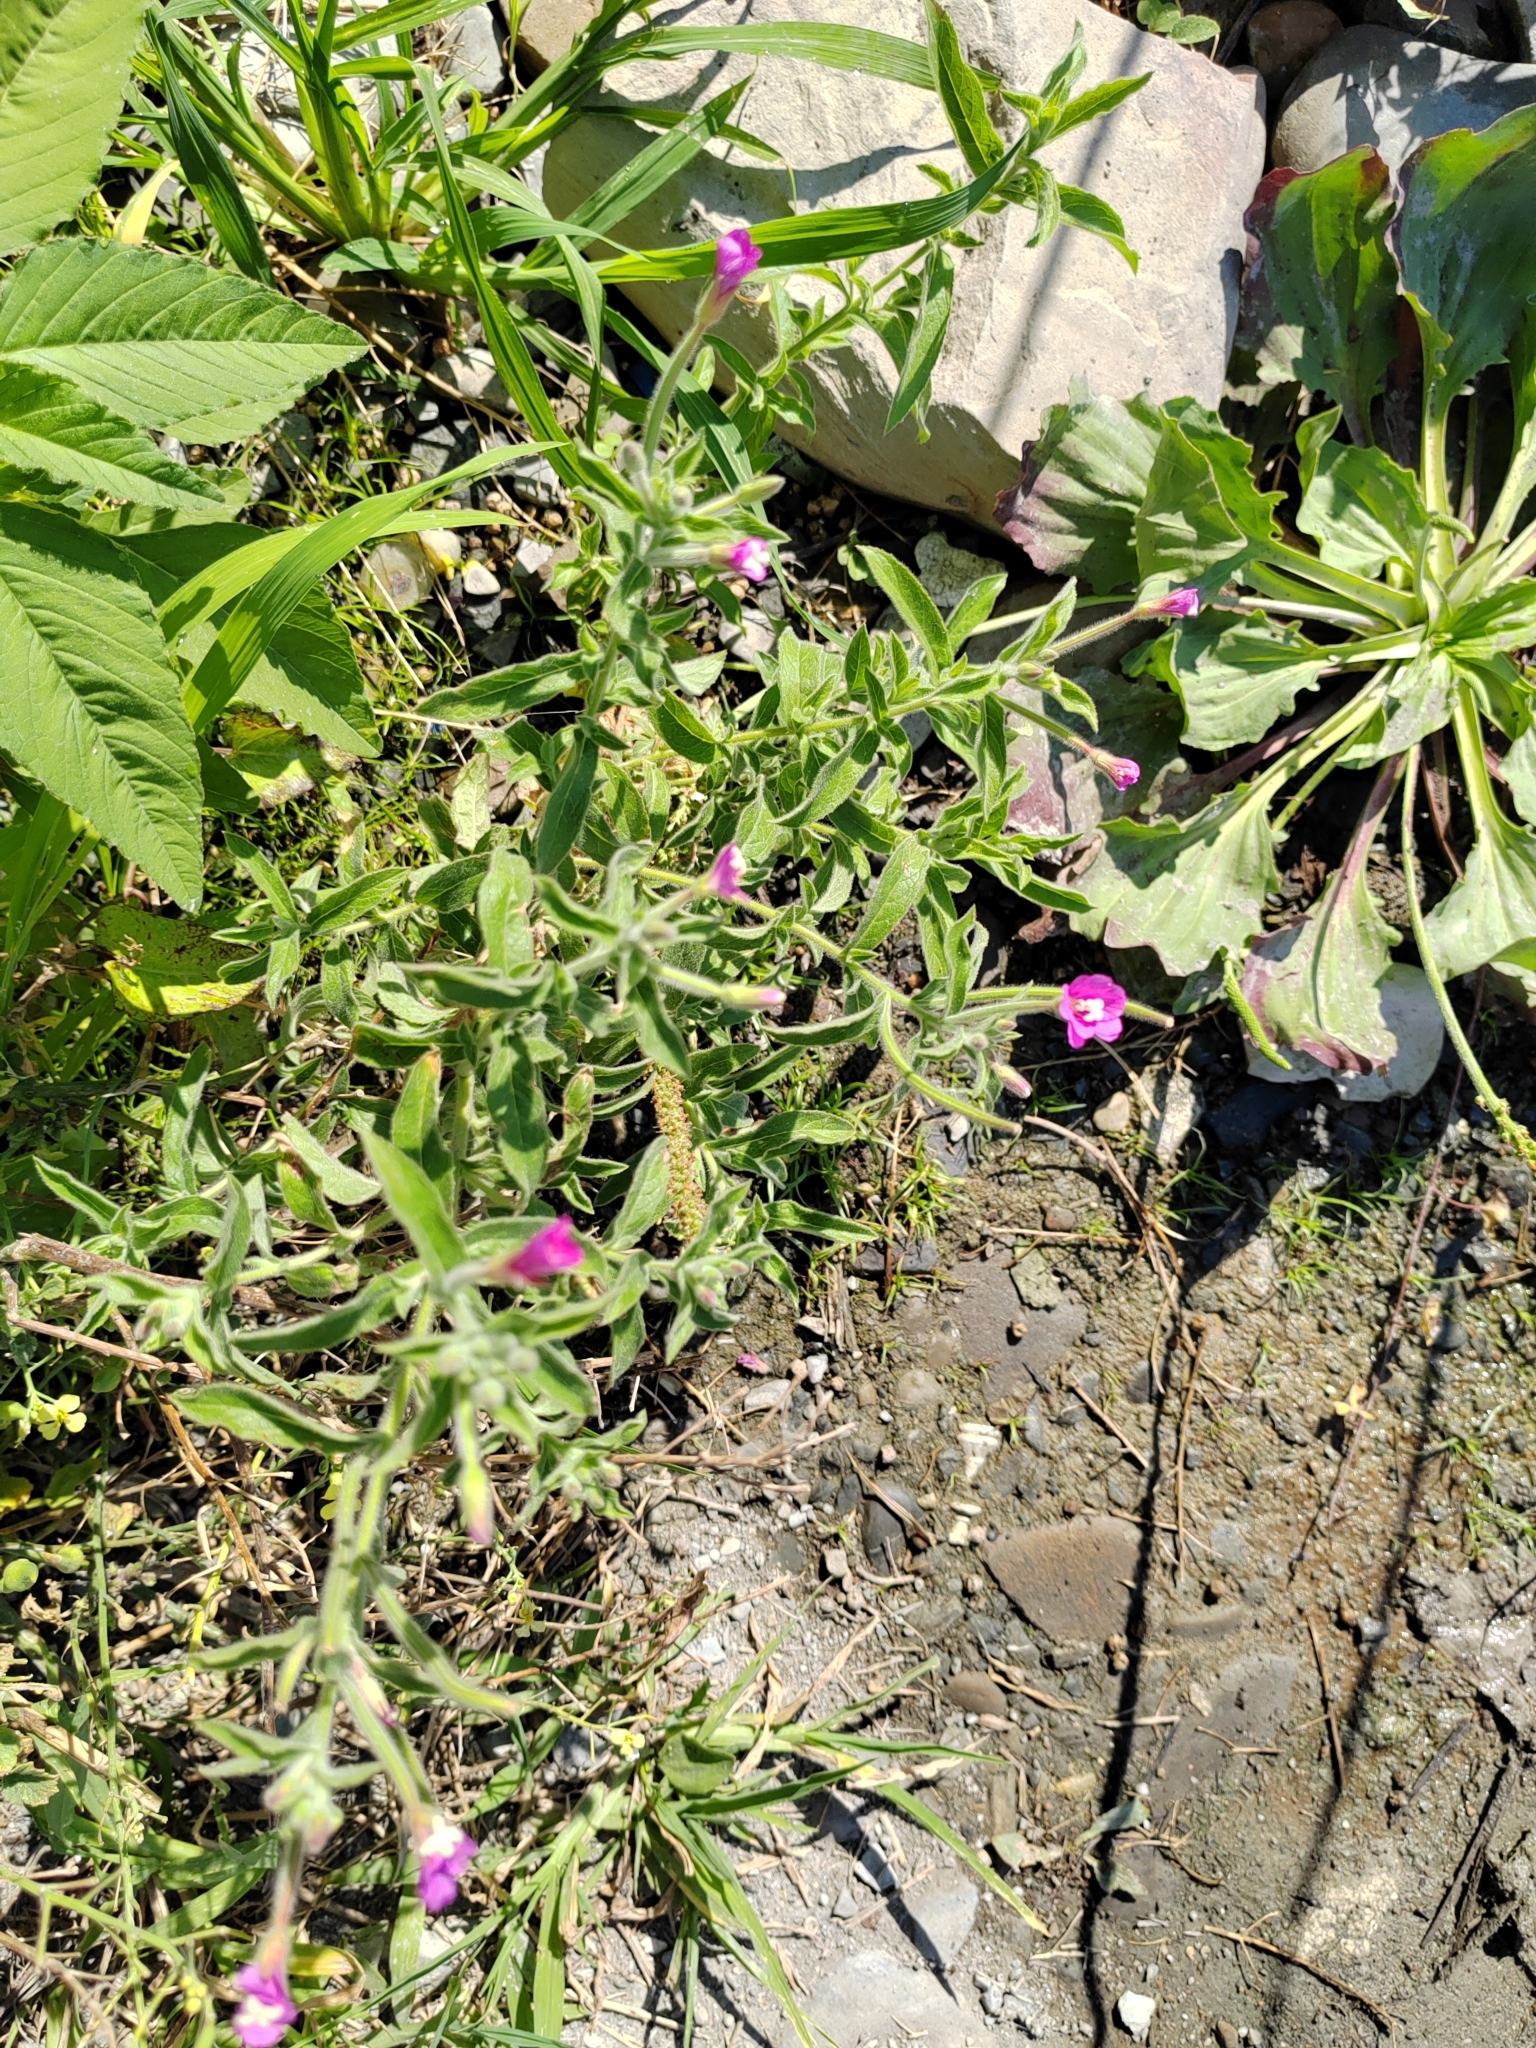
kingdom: Plantae
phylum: Tracheophyta
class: Magnoliopsida
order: Myrtales
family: Onagraceae
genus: Epilobium
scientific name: Epilobium hirsutum
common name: Great willowherb
